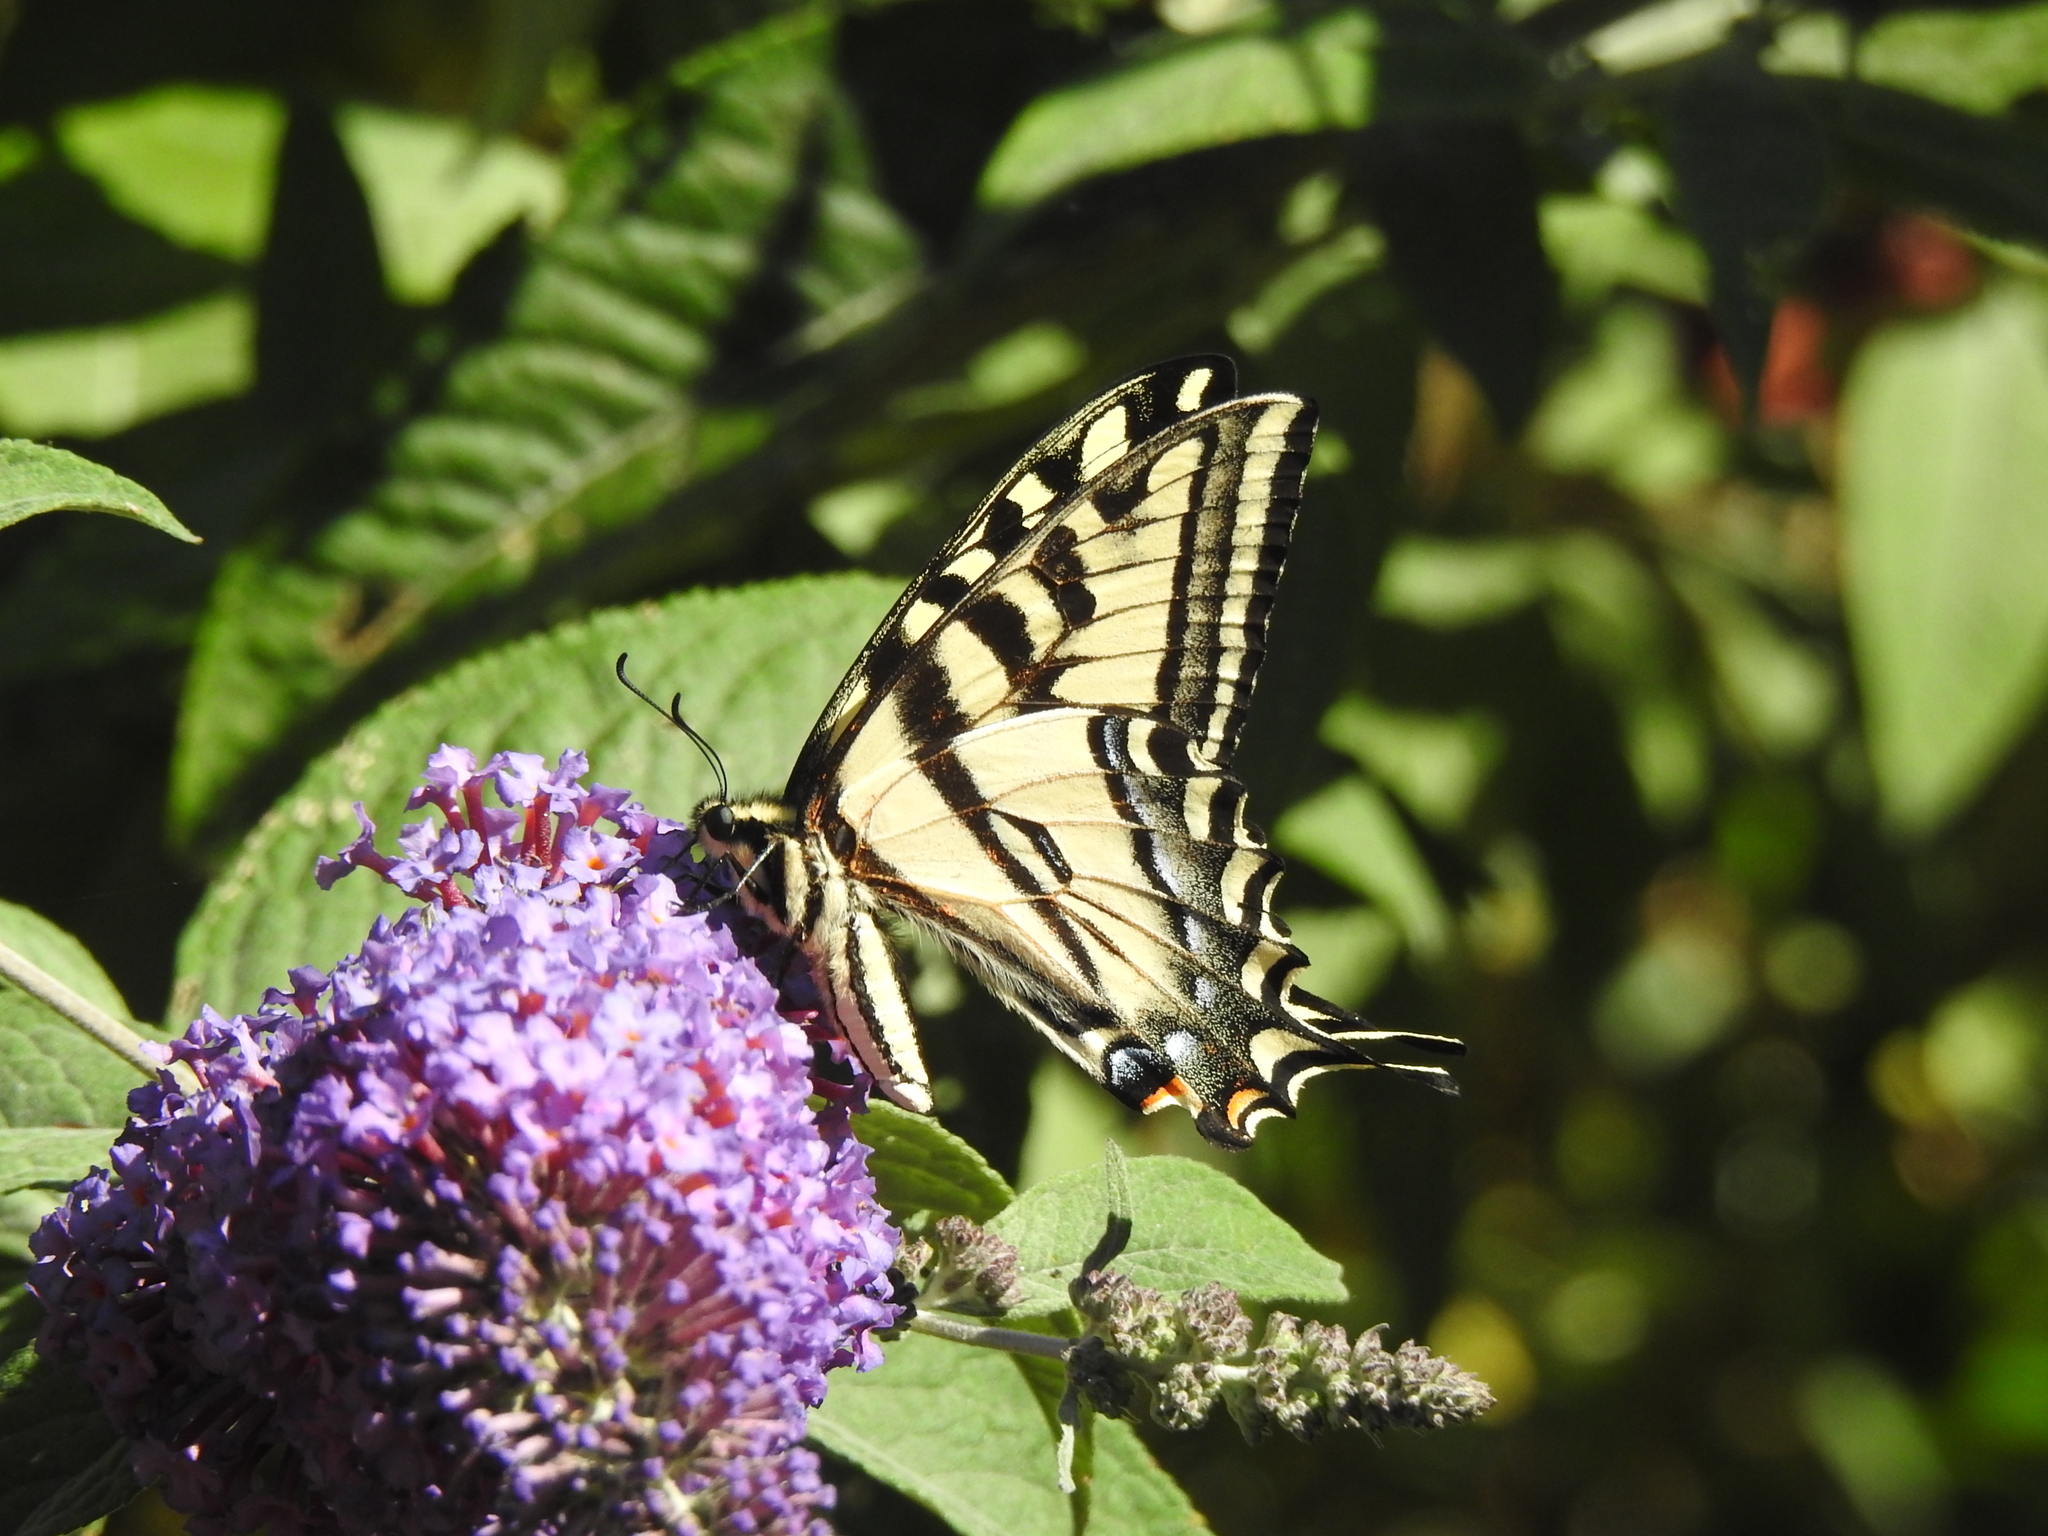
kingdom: Animalia
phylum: Arthropoda
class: Insecta
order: Lepidoptera
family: Papilionidae
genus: Papilio
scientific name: Papilio rutulus
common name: Western tiger swallowtail
